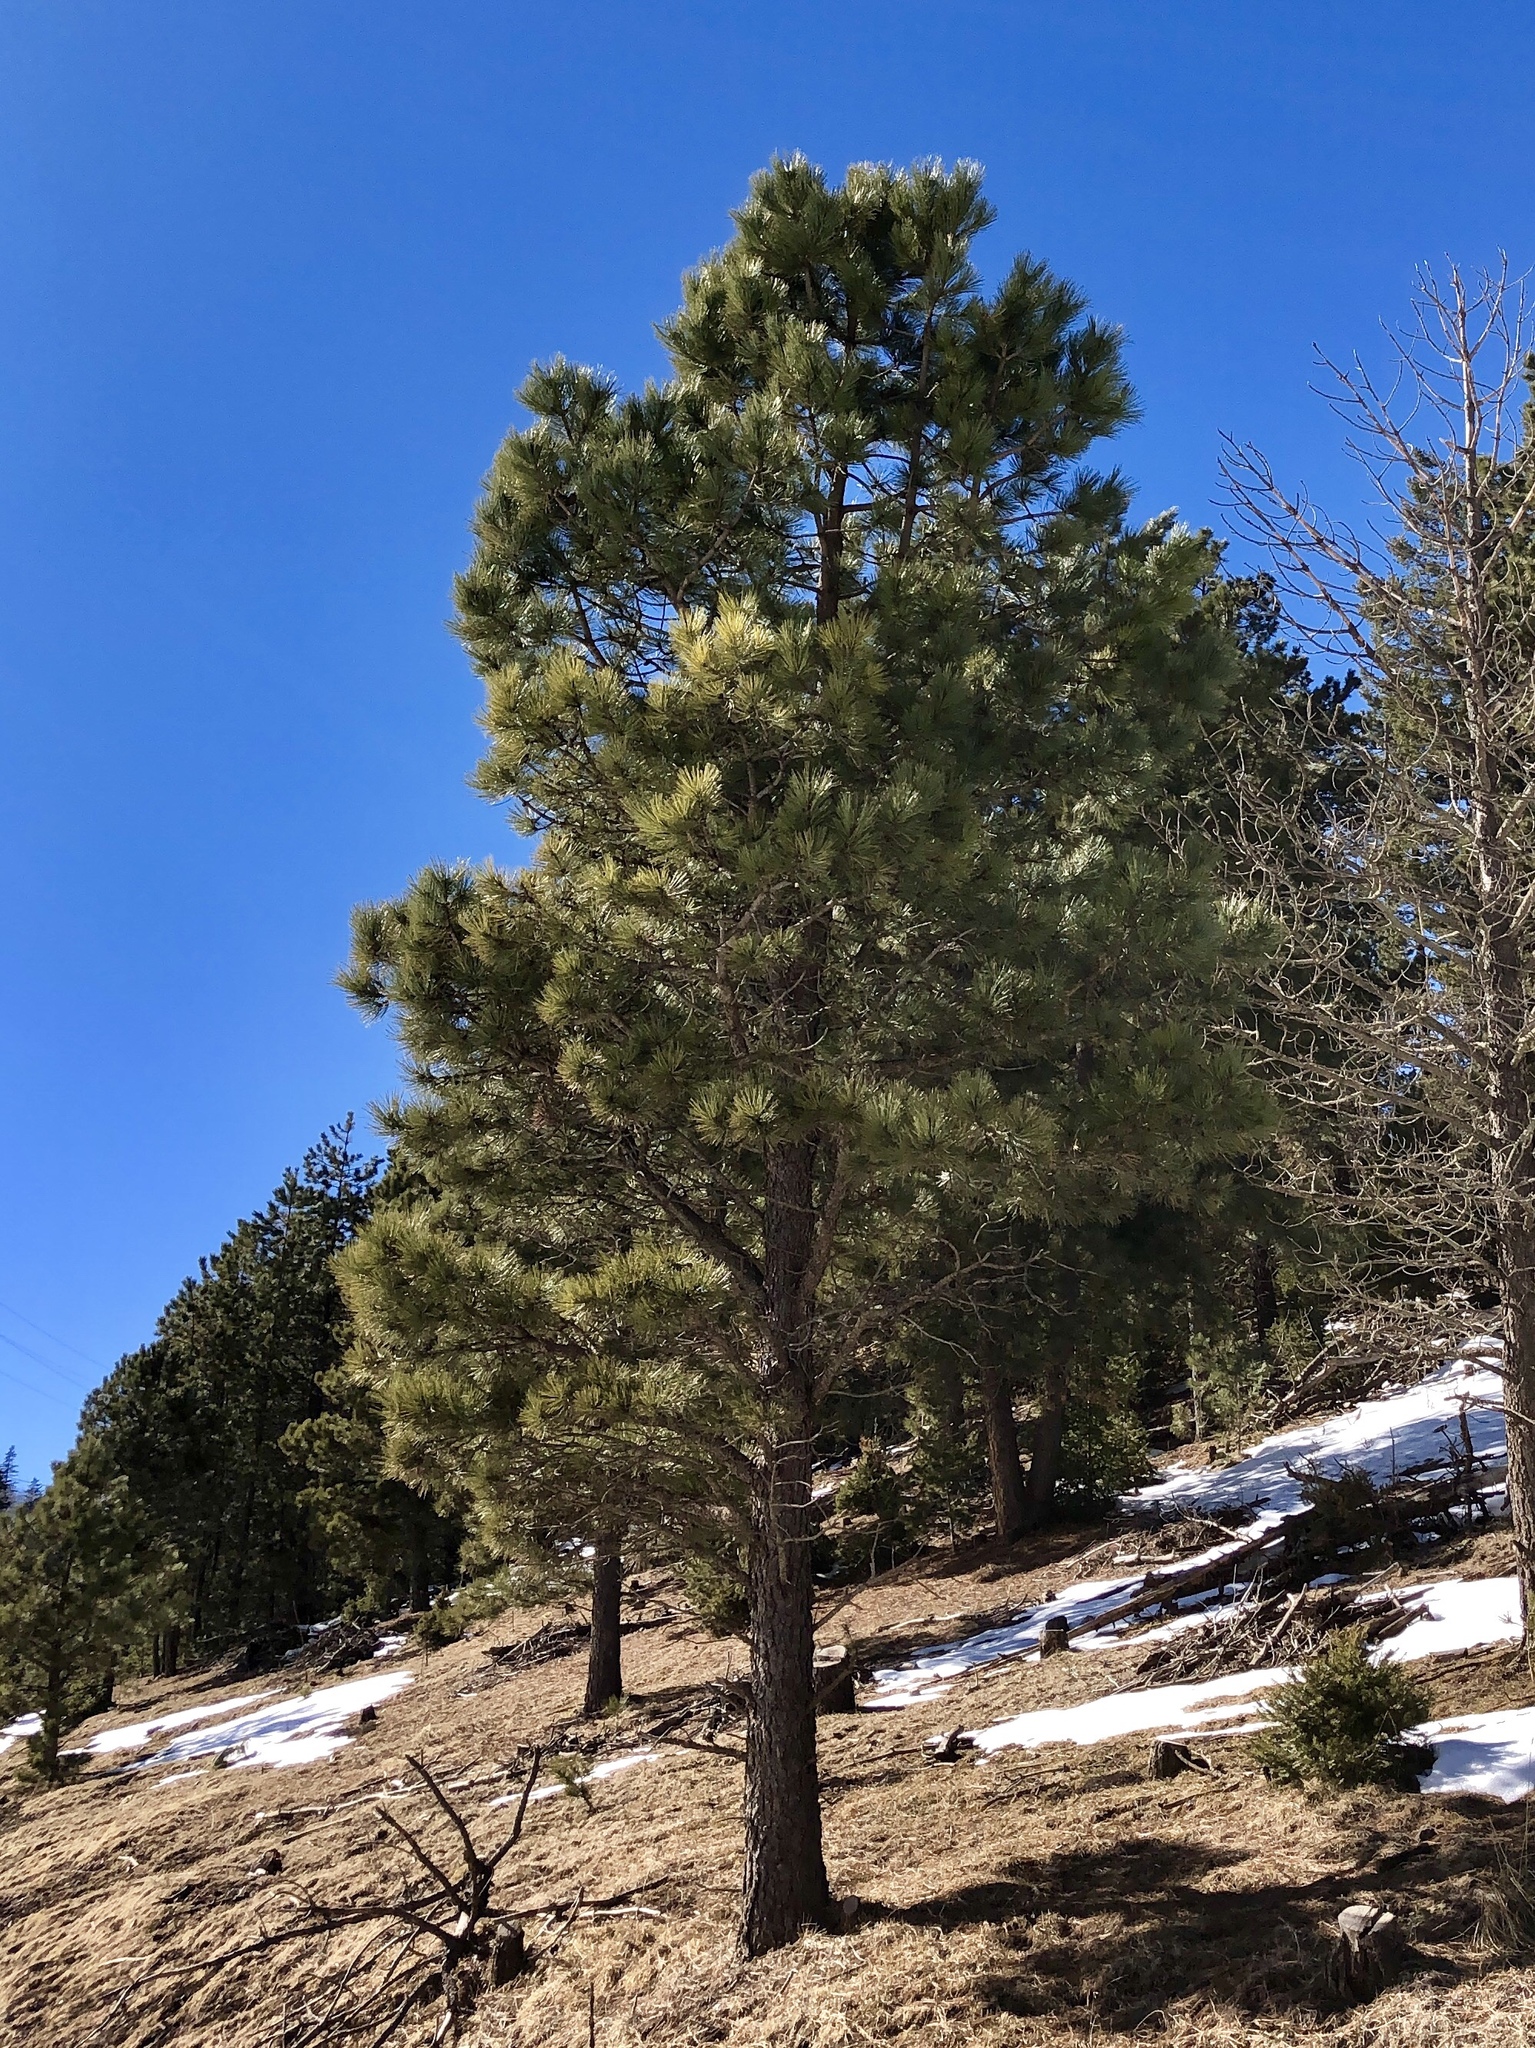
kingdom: Plantae
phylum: Tracheophyta
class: Pinopsida
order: Pinales
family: Pinaceae
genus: Pinus
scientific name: Pinus ponderosa
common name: Western yellow-pine
